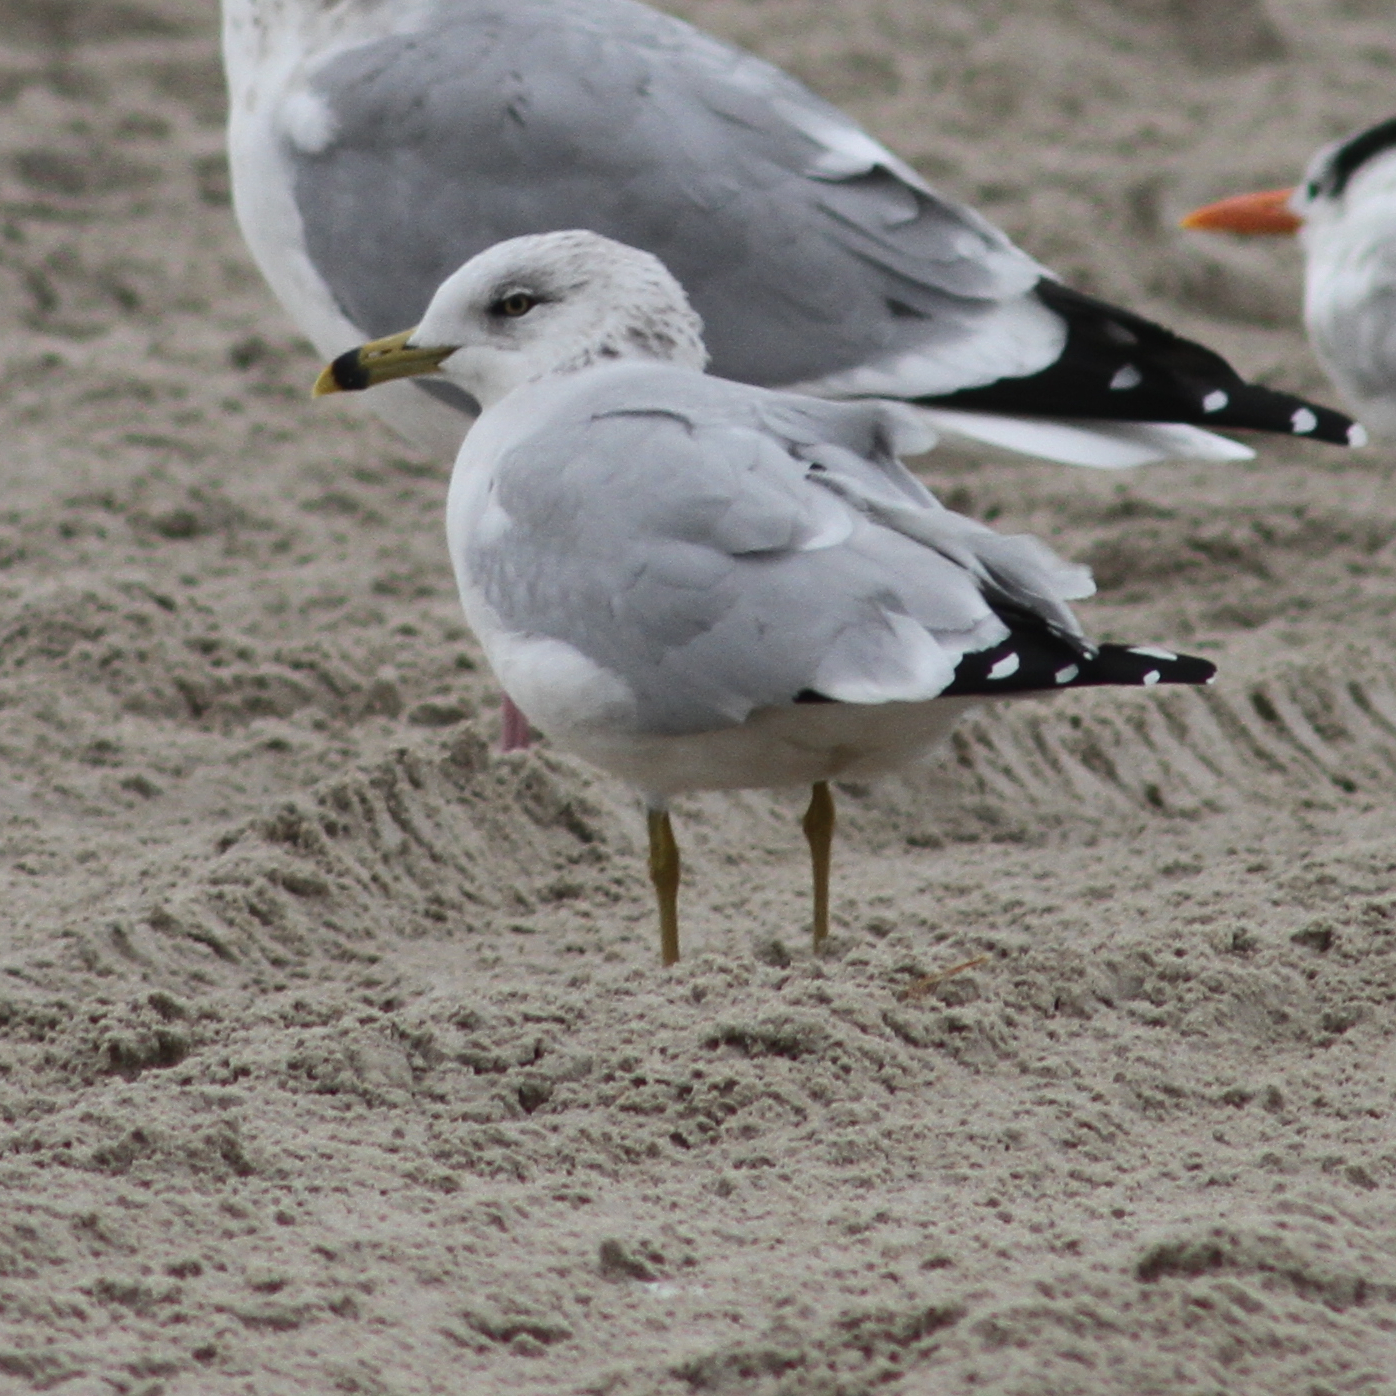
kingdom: Animalia
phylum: Chordata
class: Aves
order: Charadriiformes
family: Laridae
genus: Larus
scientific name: Larus delawarensis
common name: Ring-billed gull
